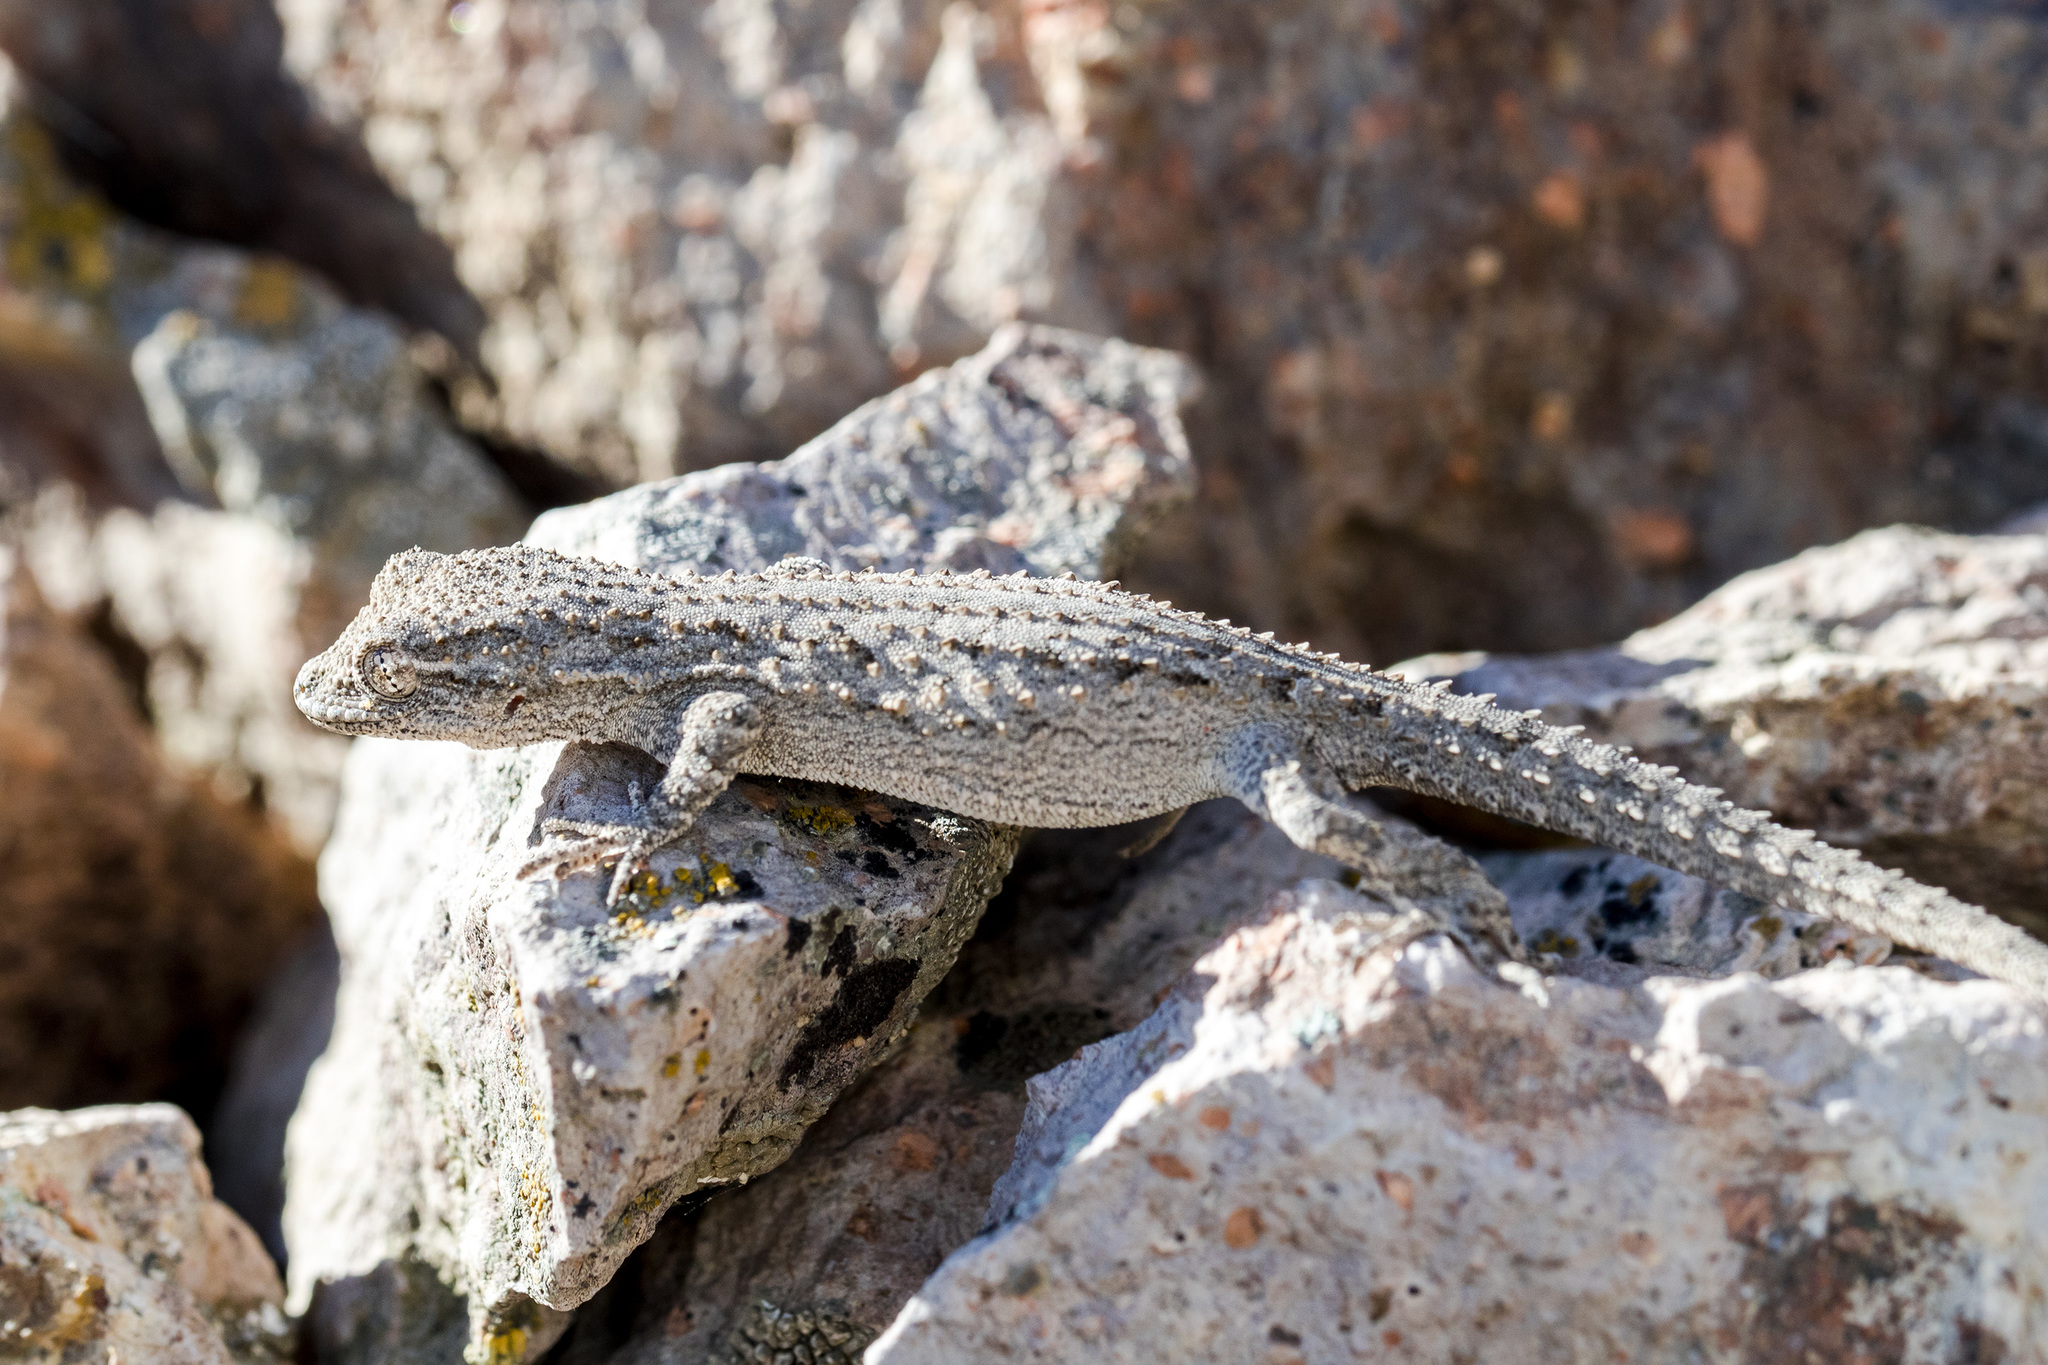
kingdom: Animalia
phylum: Chordata
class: Squamata
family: Gekkonidae
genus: Mediodactylus
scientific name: Mediodactylus russowii
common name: Grey thin-toed gecko
